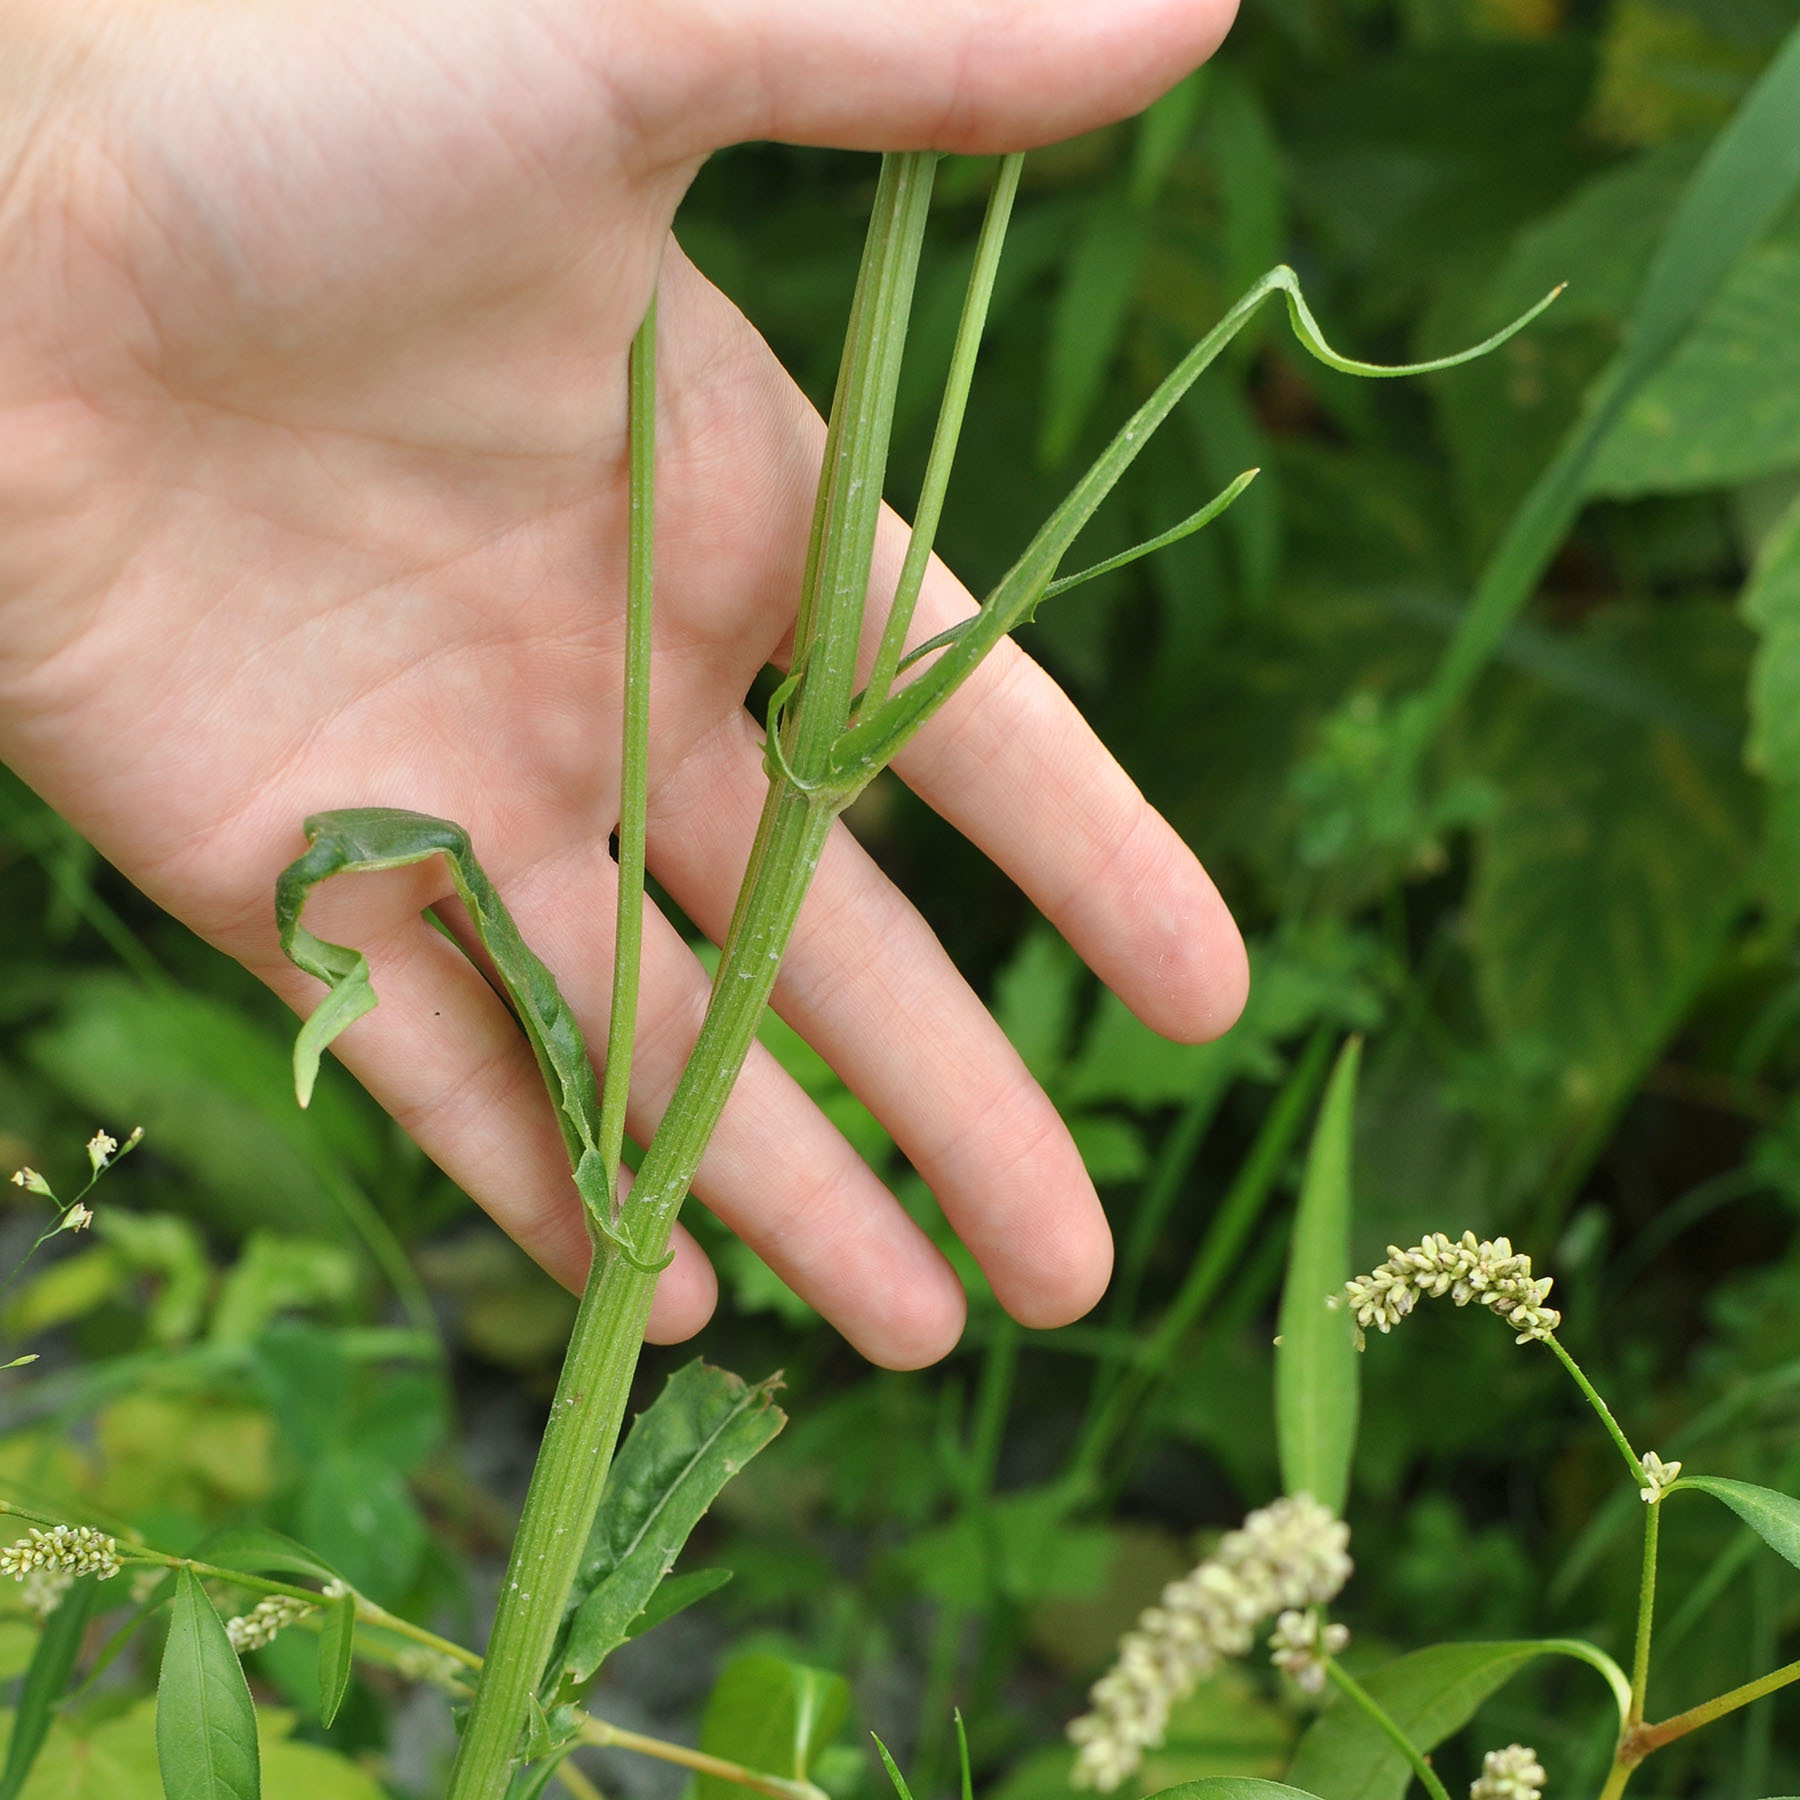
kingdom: Plantae
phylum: Tracheophyta
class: Magnoliopsida
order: Asterales
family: Asteraceae
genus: Crepis
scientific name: Crepis tectorum
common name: Narrow-leaved hawk's-beard
